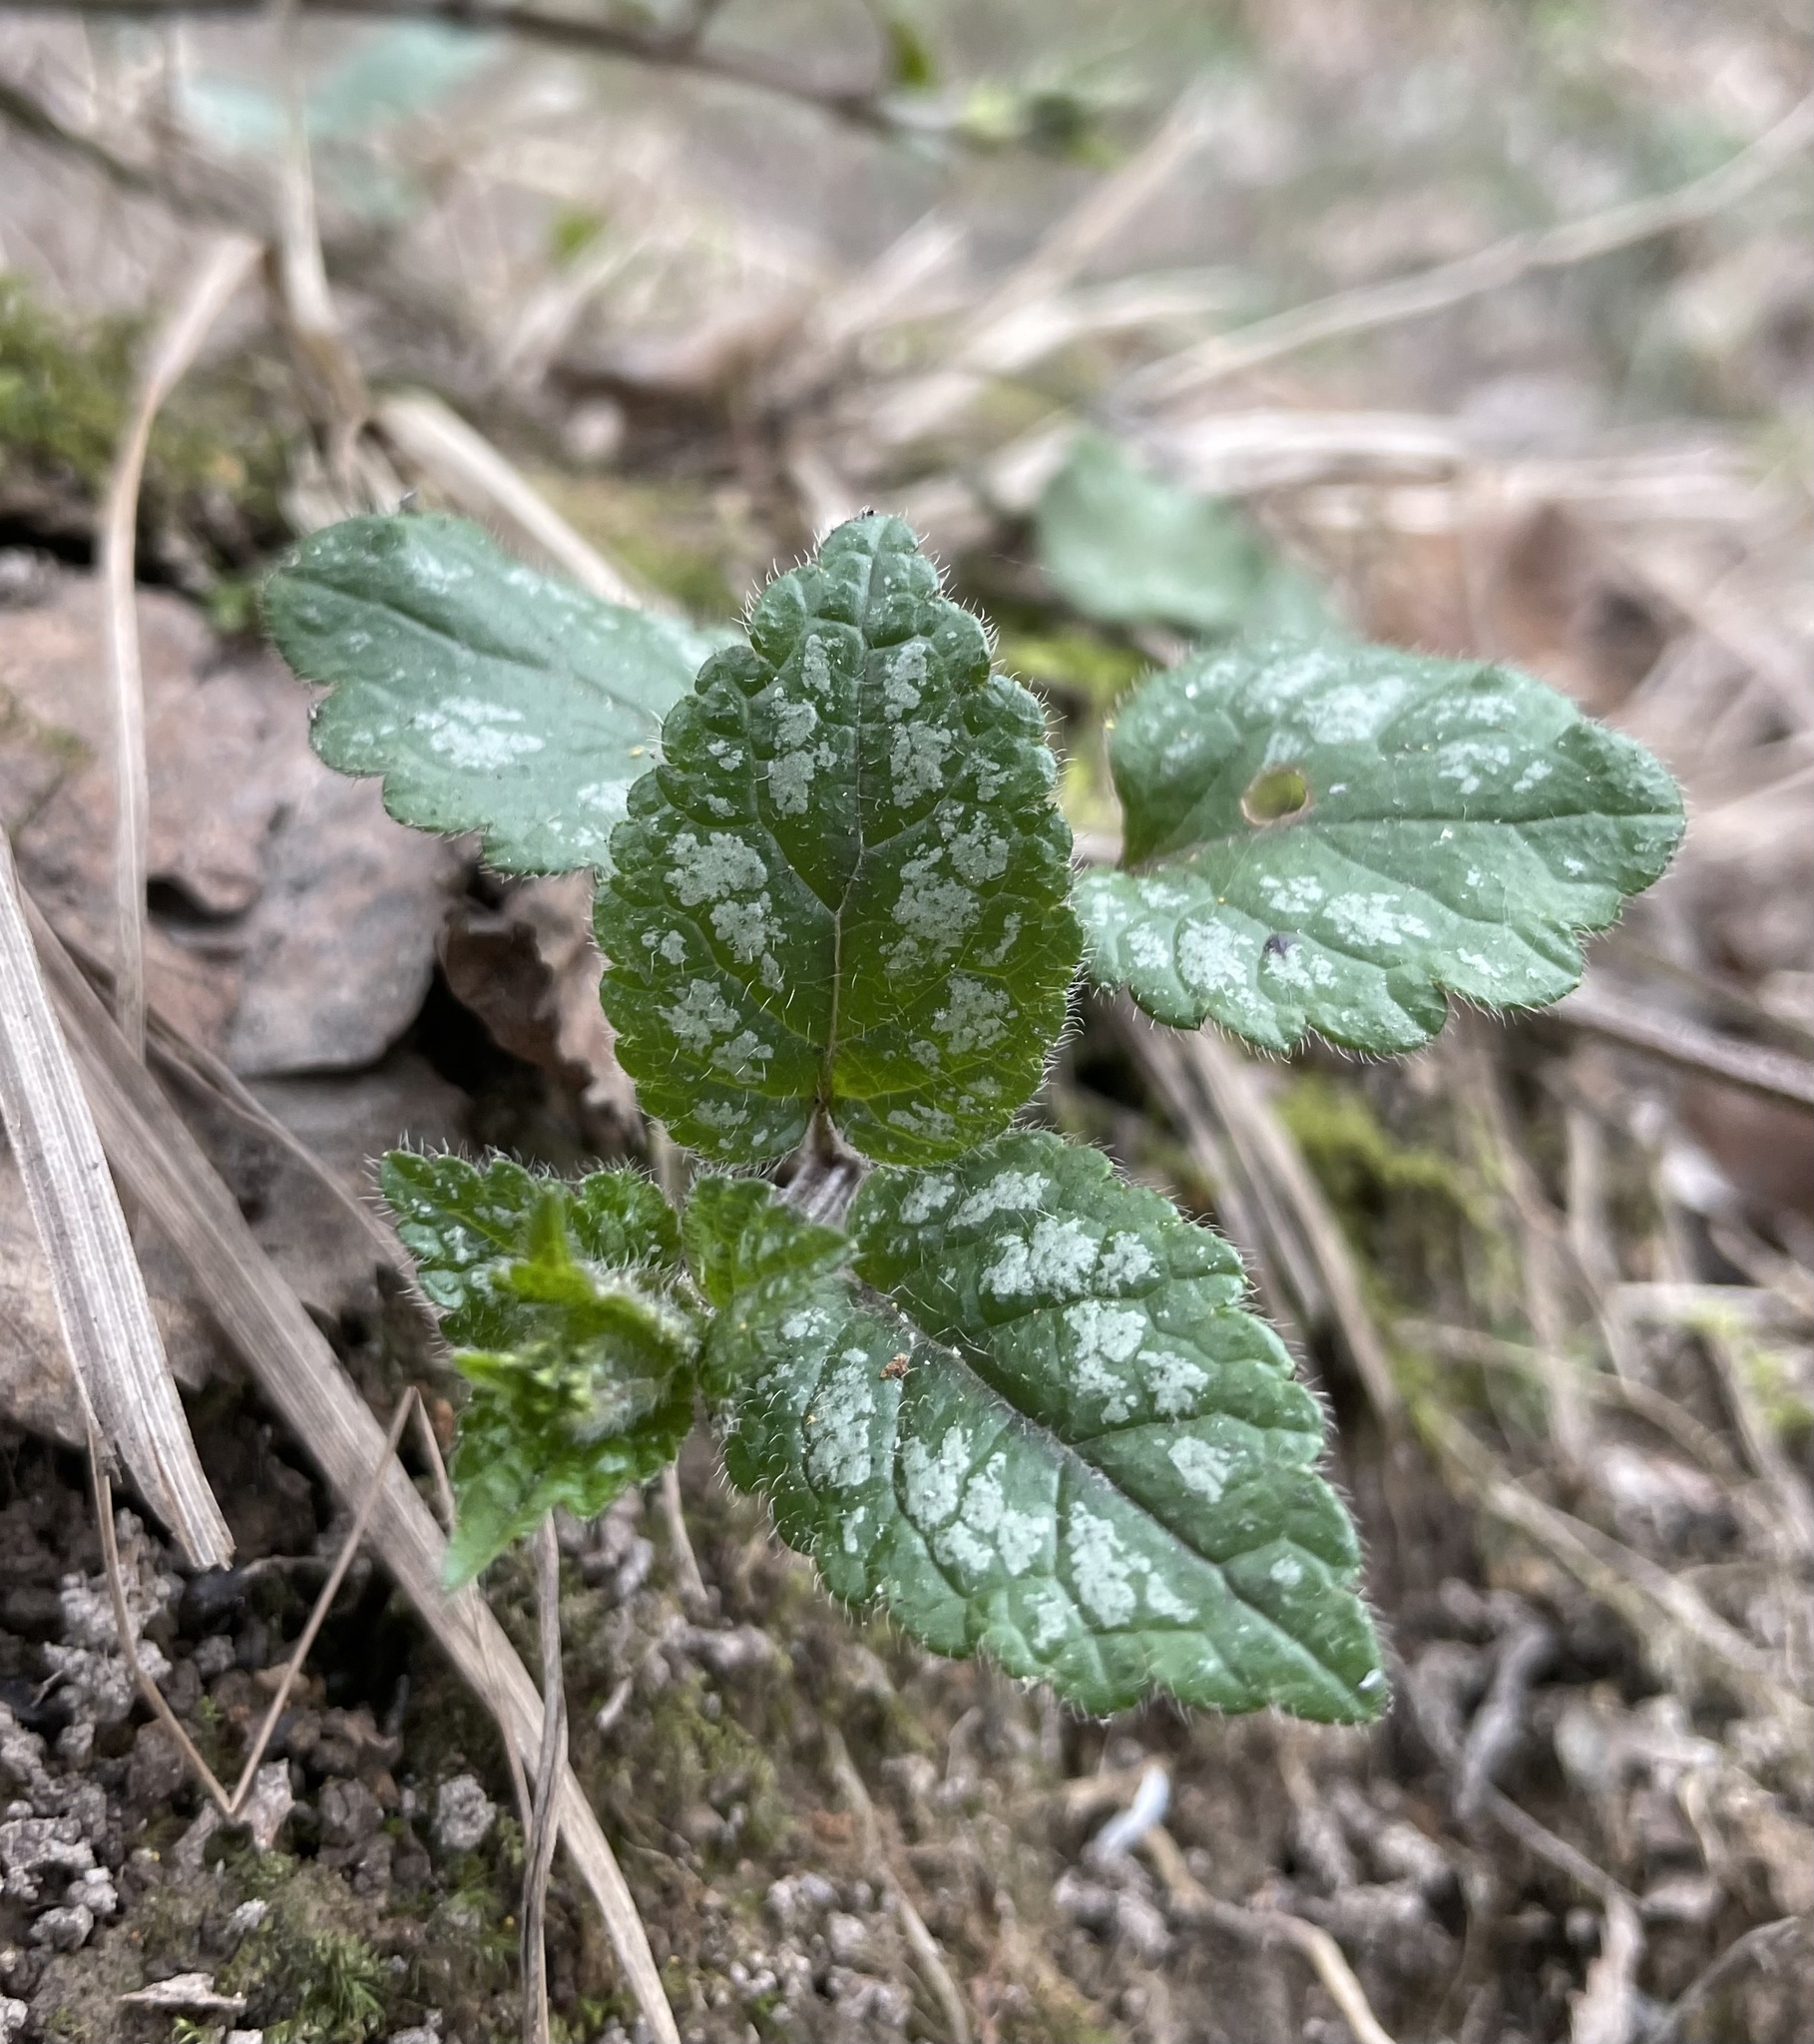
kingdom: Plantae
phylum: Tracheophyta
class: Magnoliopsida
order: Lamiales
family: Lamiaceae
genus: Lamium
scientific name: Lamium galeobdolon
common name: Yellow archangel
